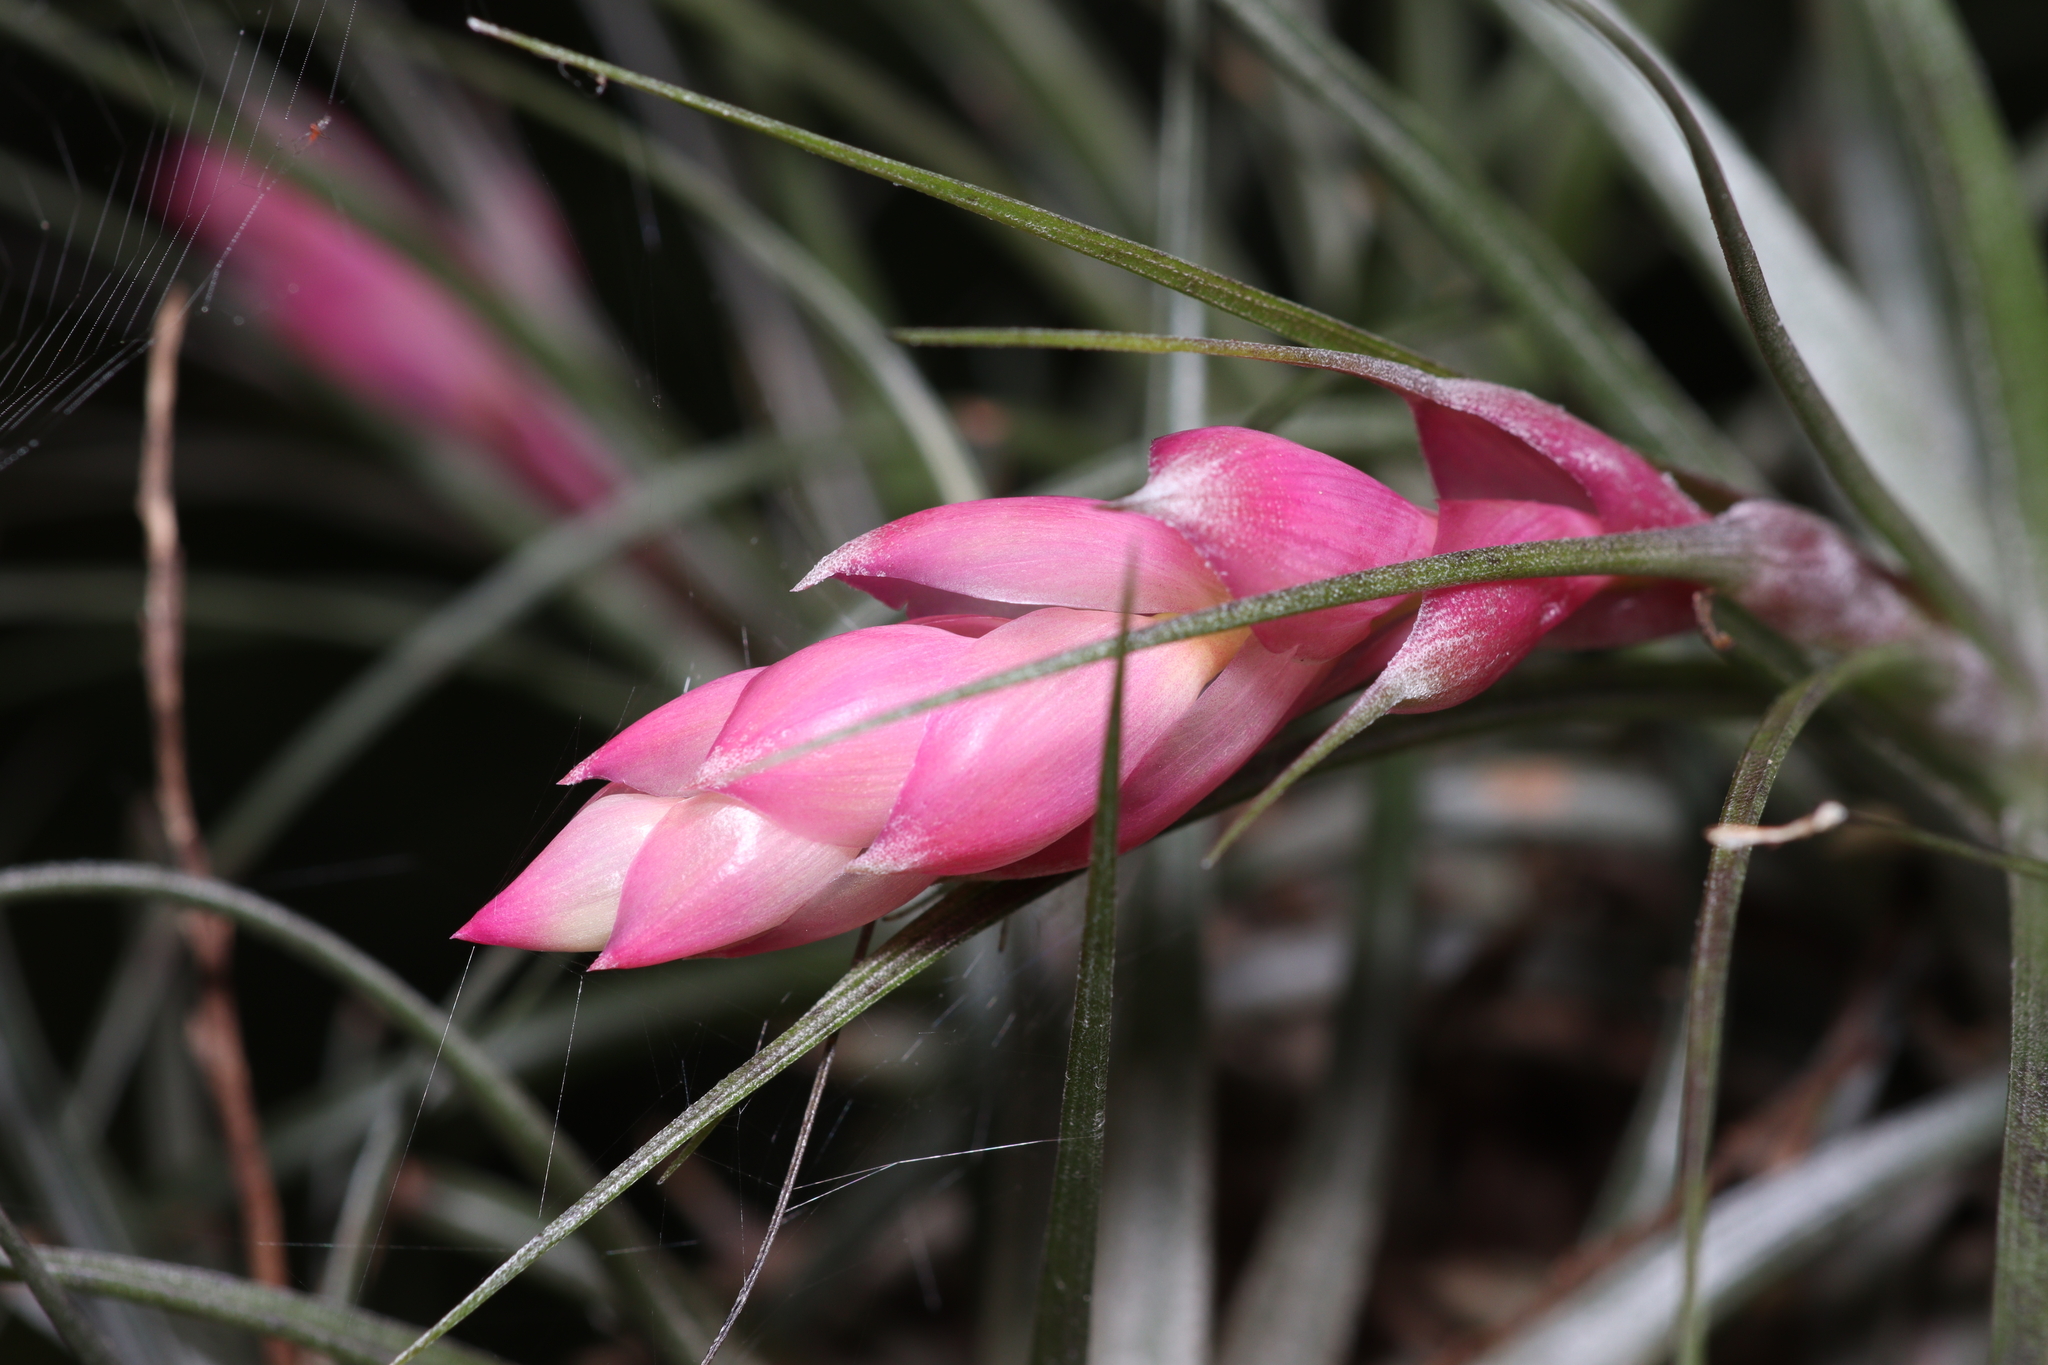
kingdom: Plantae
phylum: Tracheophyta
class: Liliopsida
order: Poales
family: Bromeliaceae
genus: Tillandsia
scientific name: Tillandsia stricta
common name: Airplant
